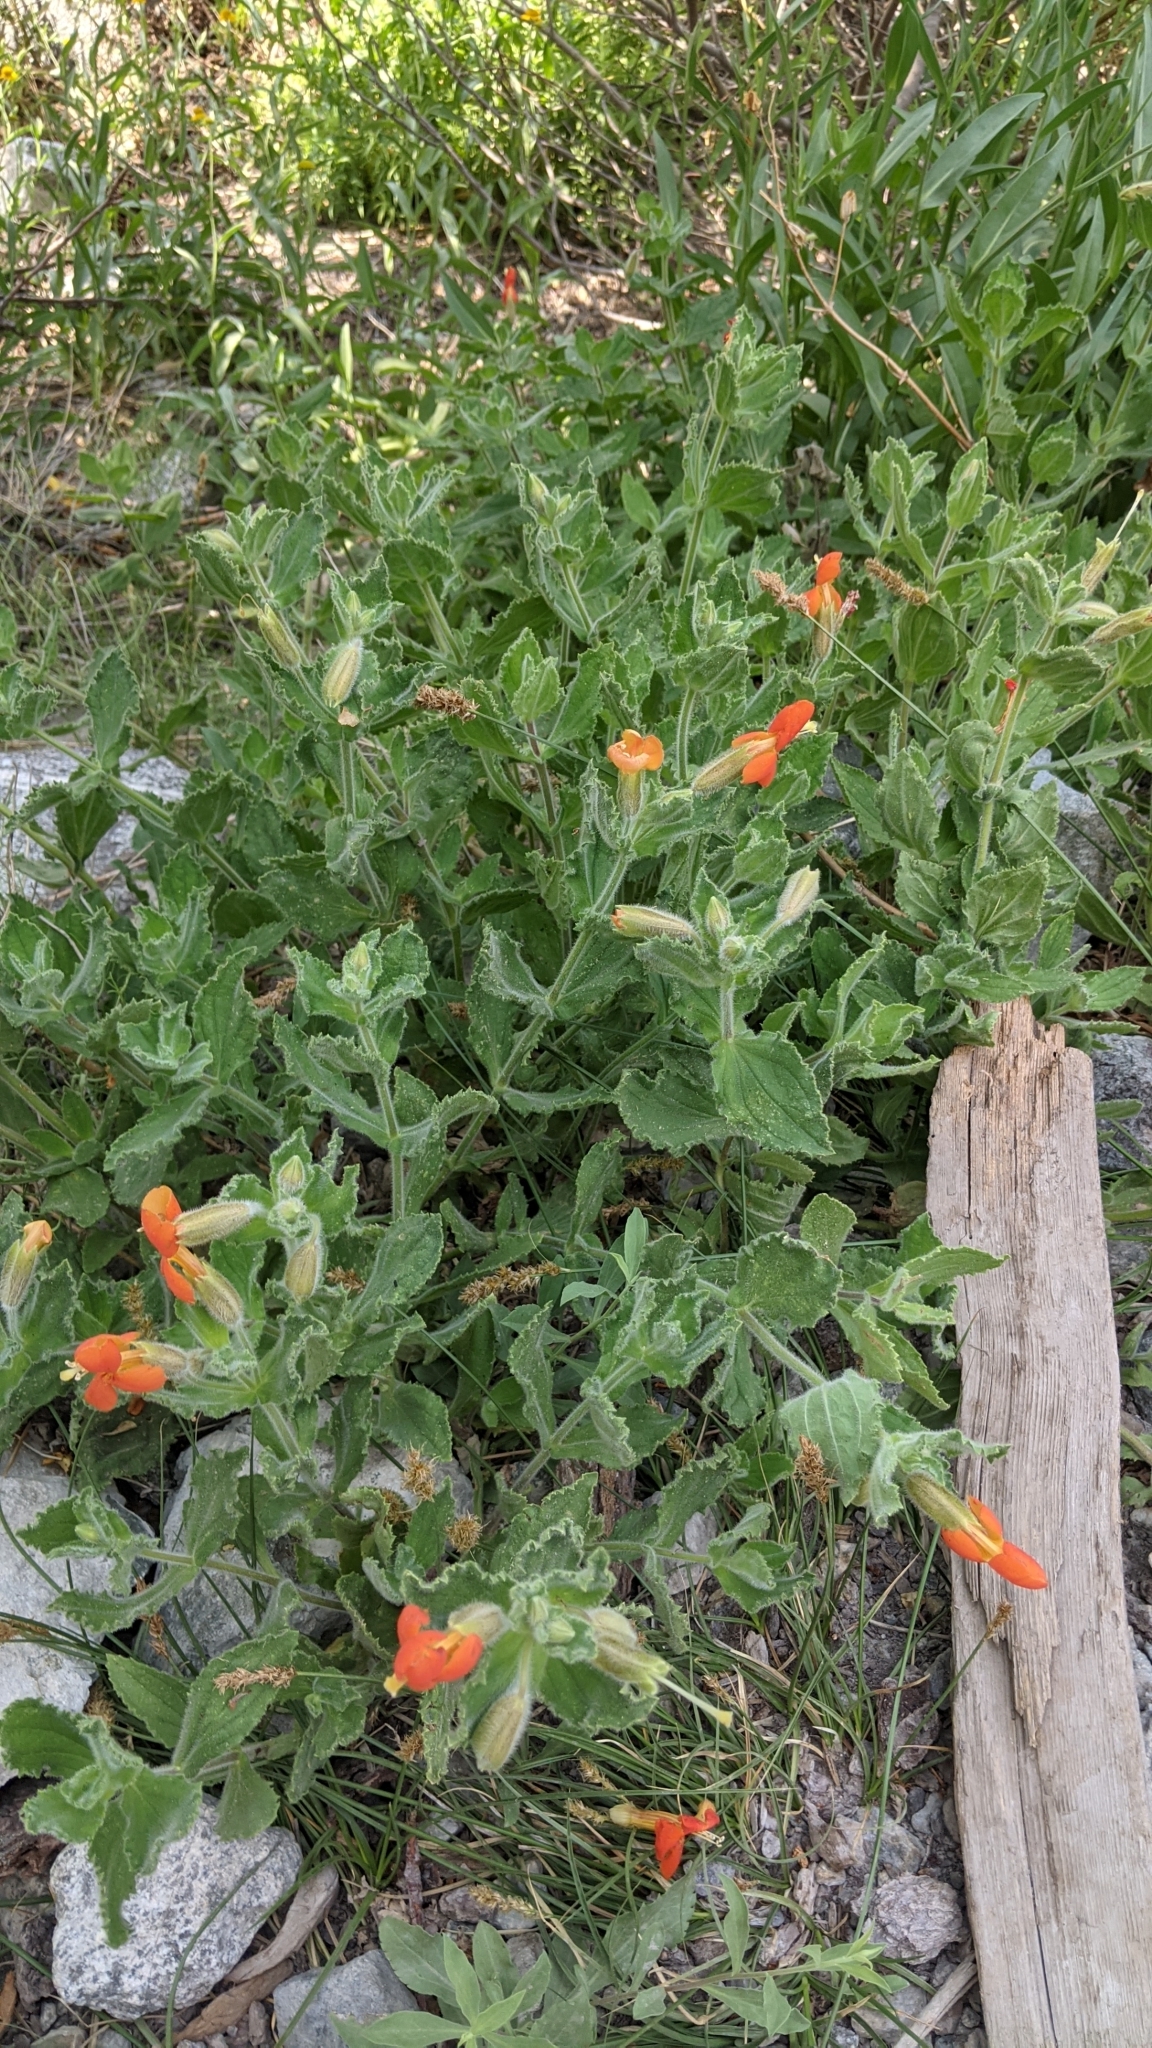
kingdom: Plantae
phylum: Tracheophyta
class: Magnoliopsida
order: Lamiales
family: Phrymaceae
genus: Erythranthe
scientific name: Erythranthe cardinalis
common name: Scarlet monkey-flower
